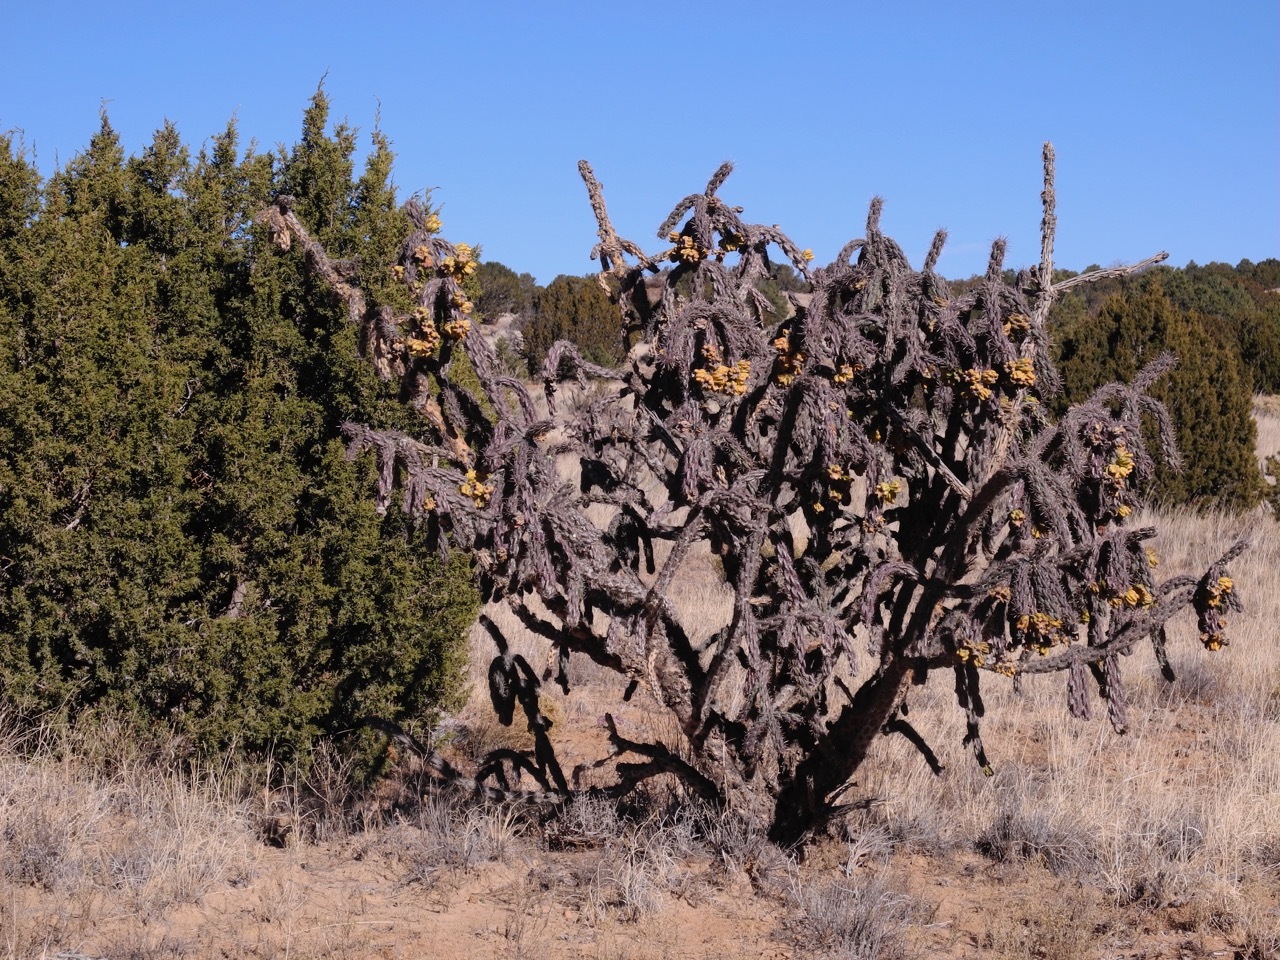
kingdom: Plantae
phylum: Tracheophyta
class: Magnoliopsida
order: Caryophyllales
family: Cactaceae
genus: Cylindropuntia
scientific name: Cylindropuntia imbricata
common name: Candelabrum cactus
